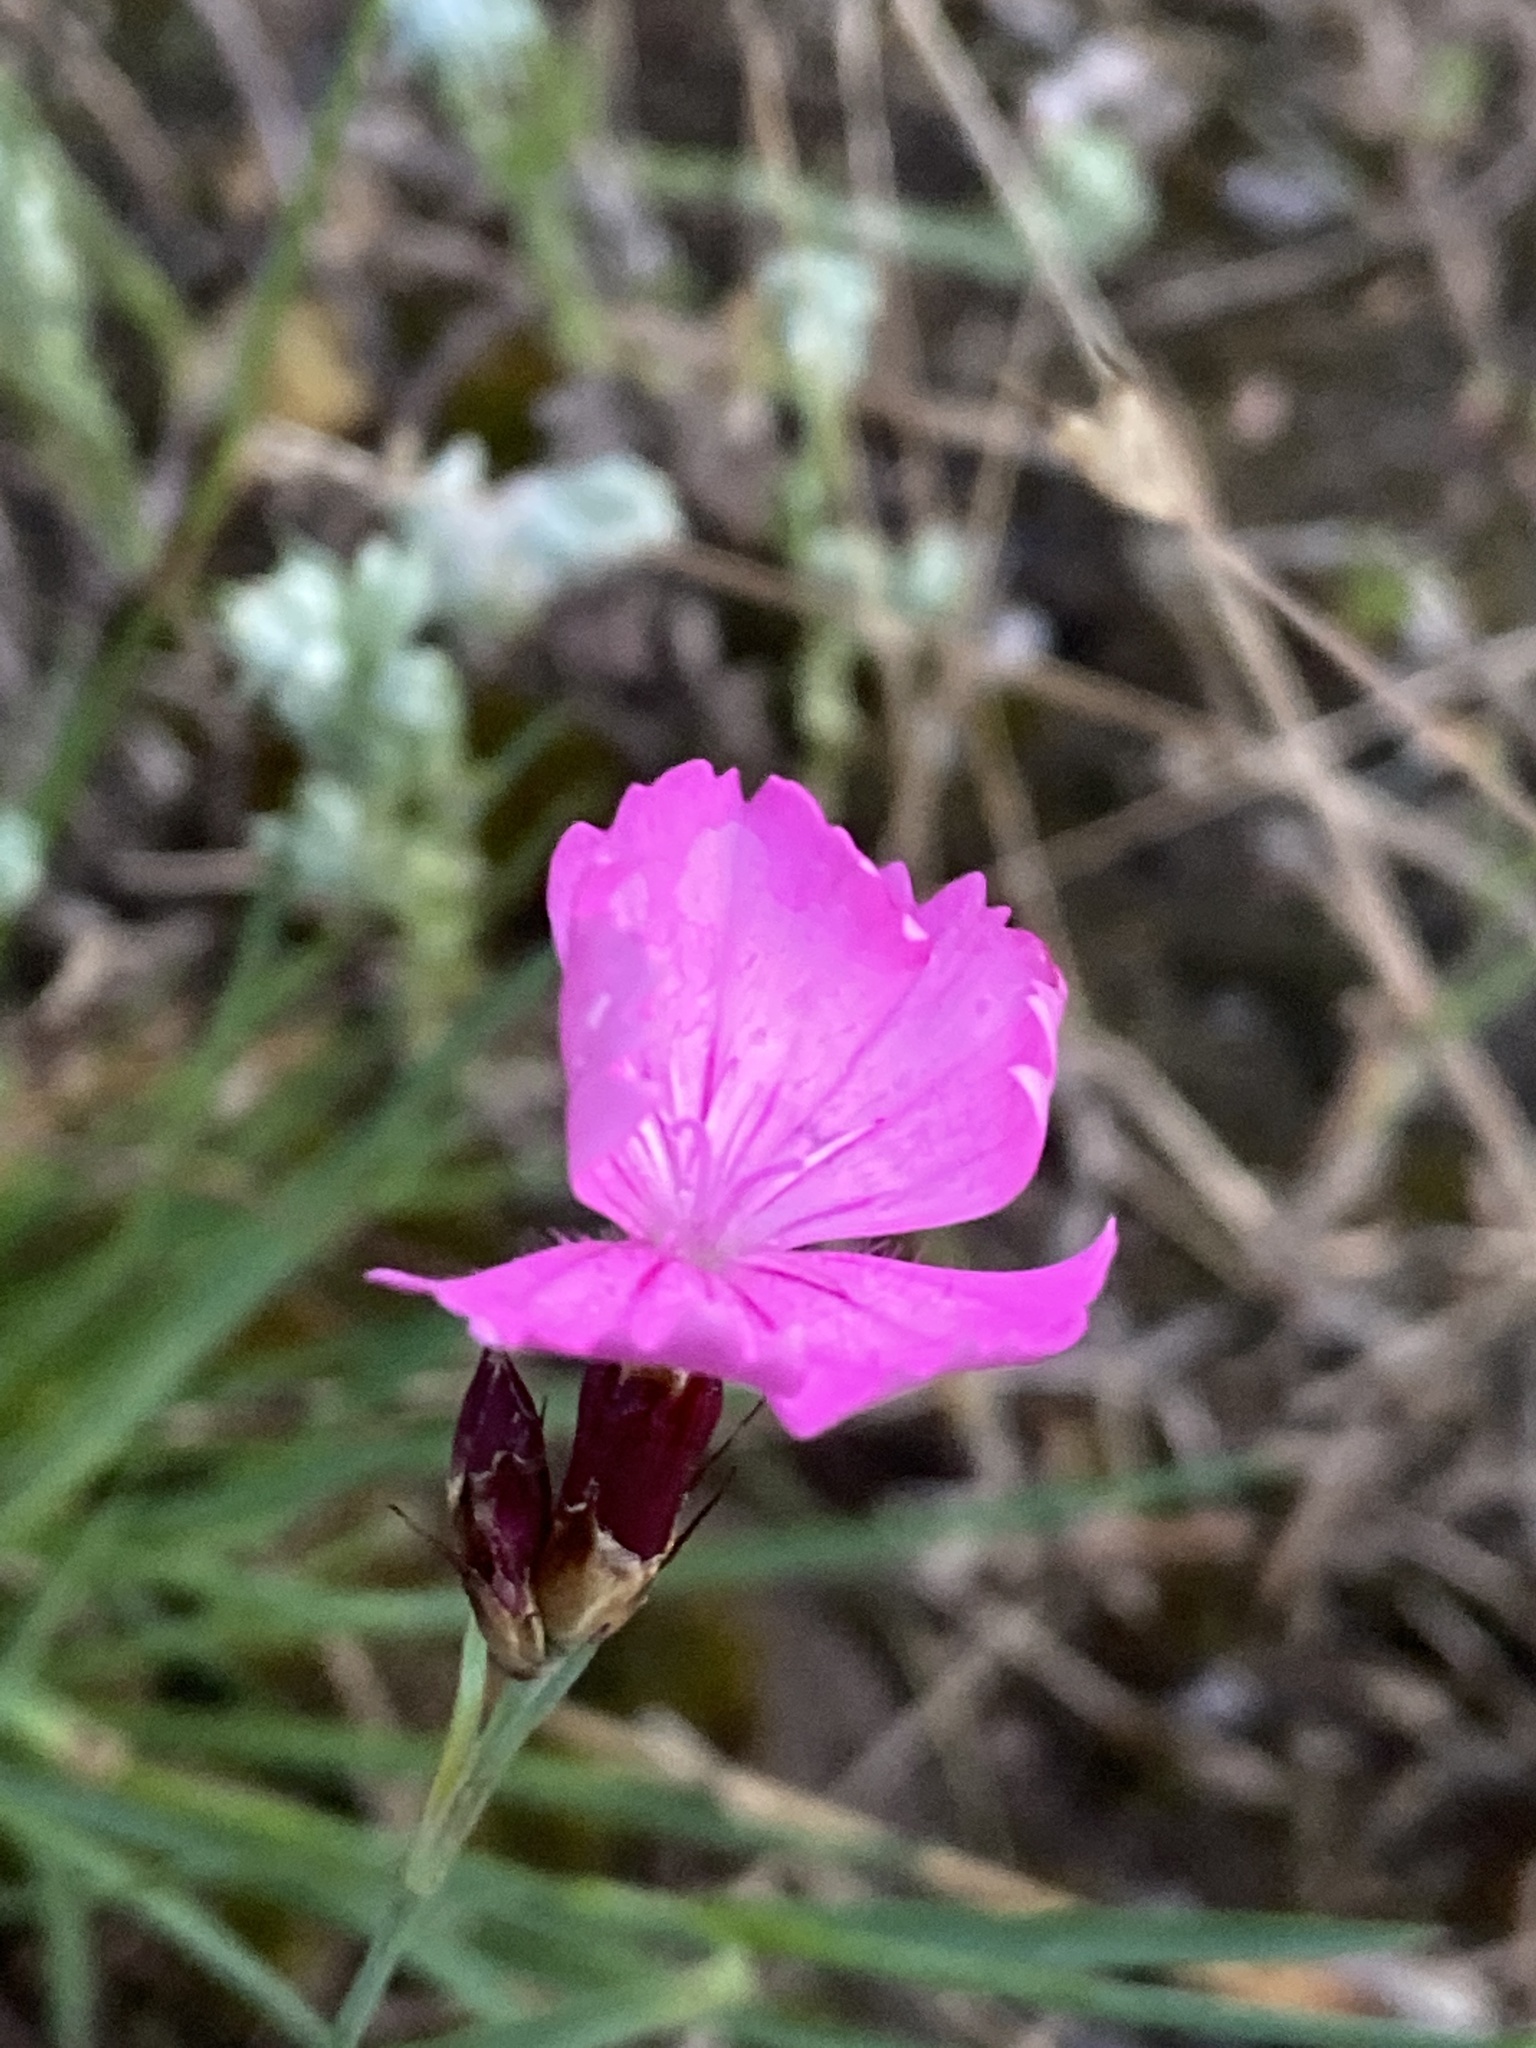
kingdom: Plantae
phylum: Tracheophyta
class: Magnoliopsida
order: Caryophyllales
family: Caryophyllaceae
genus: Dianthus
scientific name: Dianthus carthusianorum
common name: Carthusian pink
